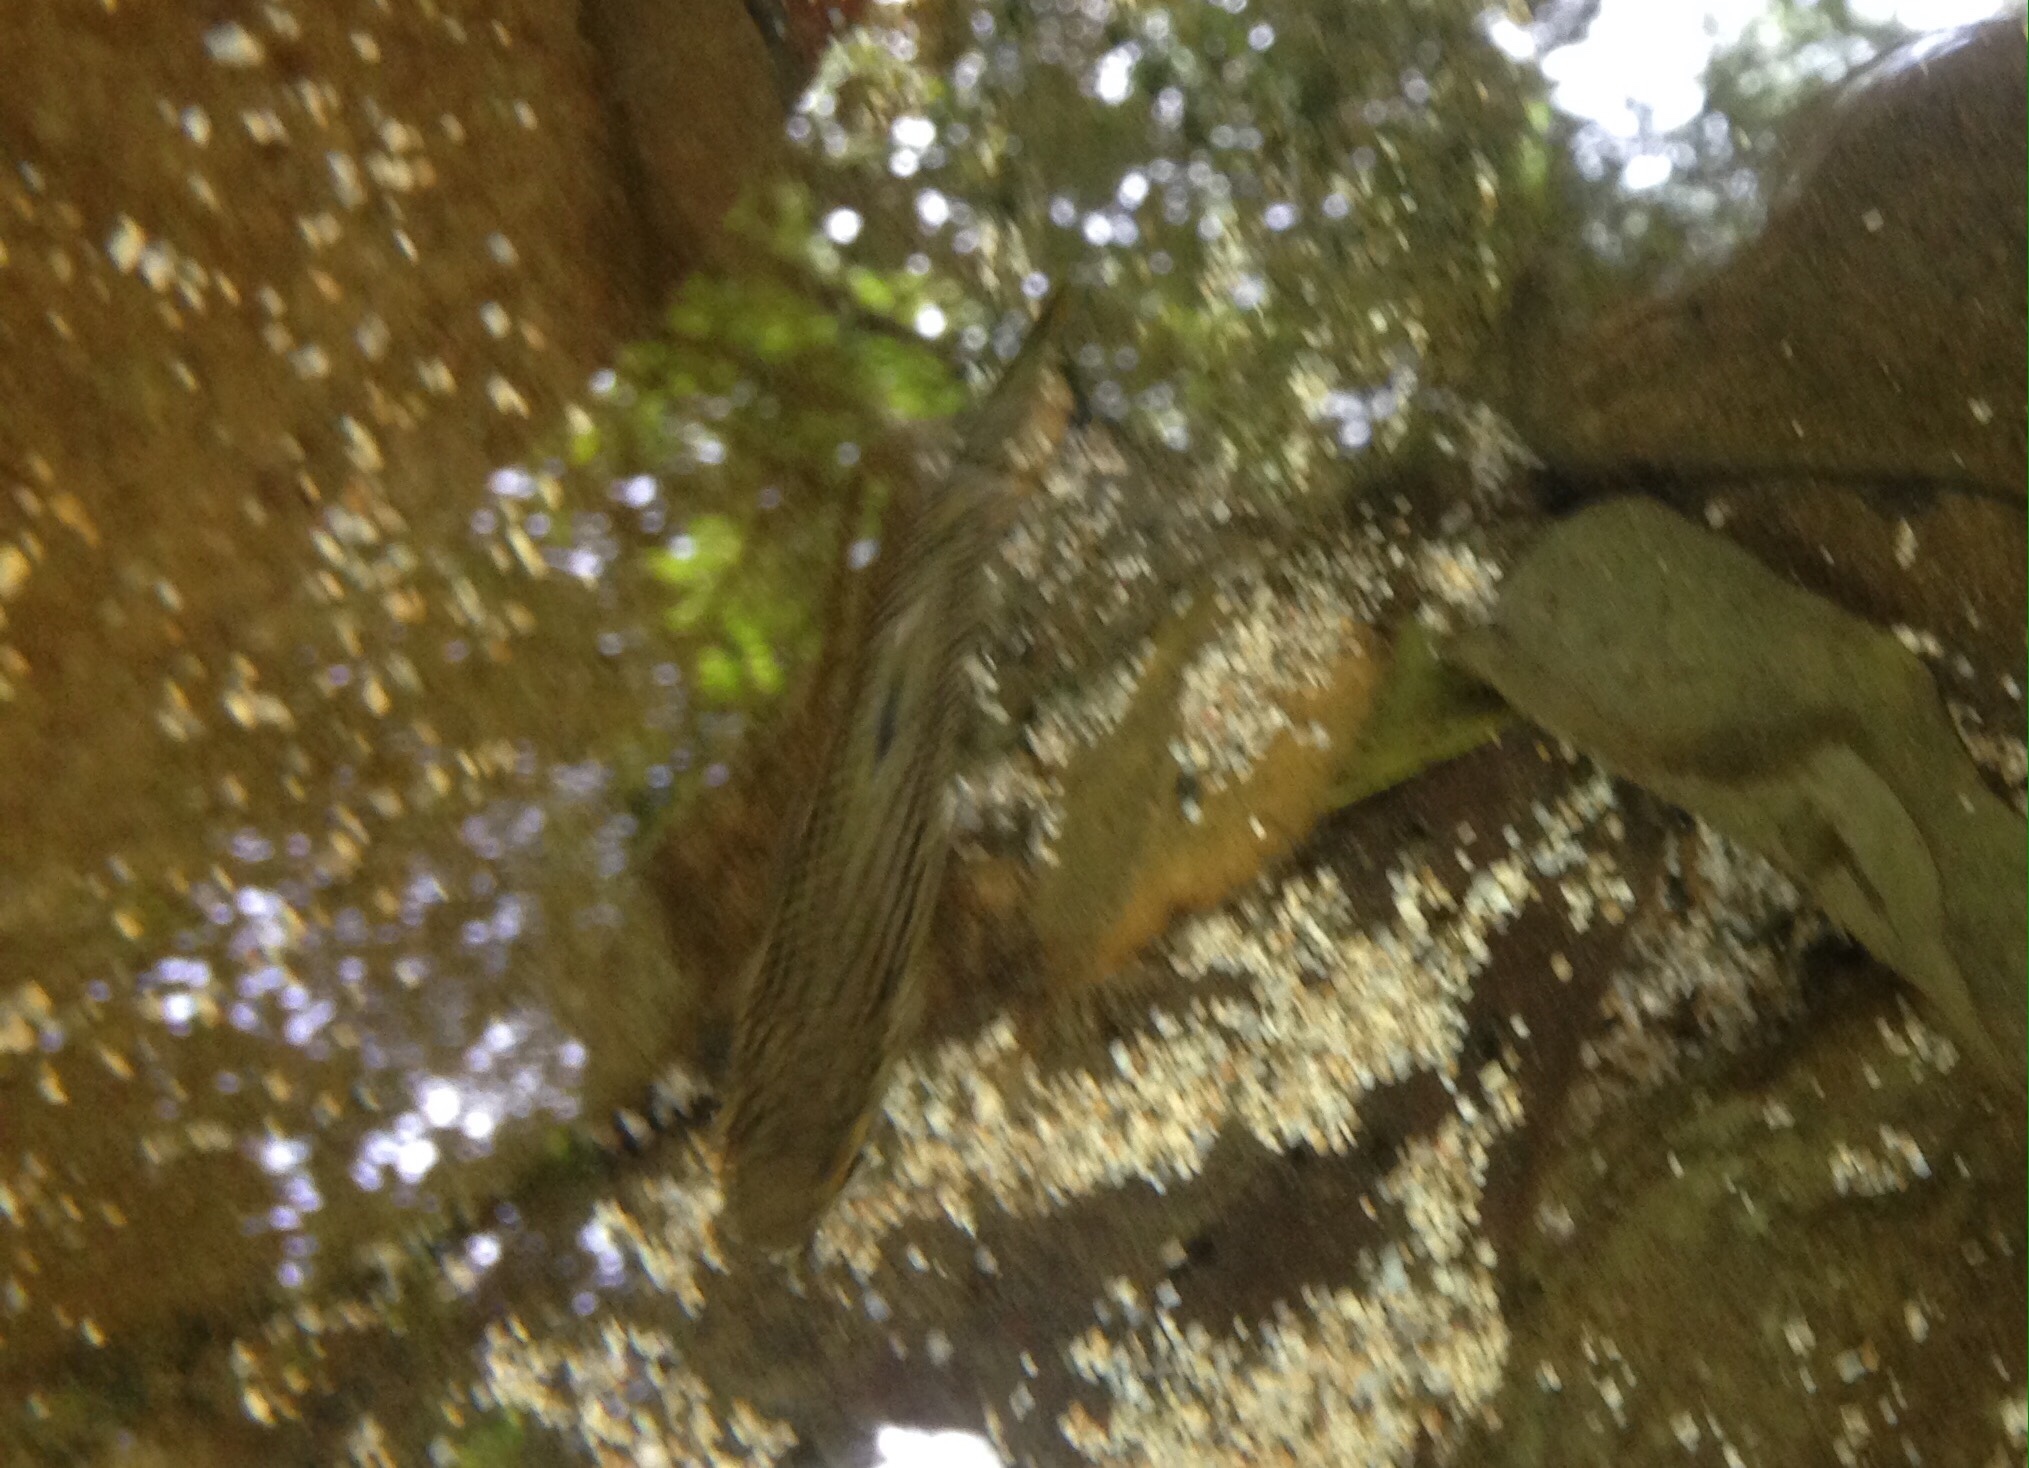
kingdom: Animalia
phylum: Chordata
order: Mugiliformes
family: Mugilidae
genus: Dajaus
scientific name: Dajaus monticola
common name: Mountain mullet
